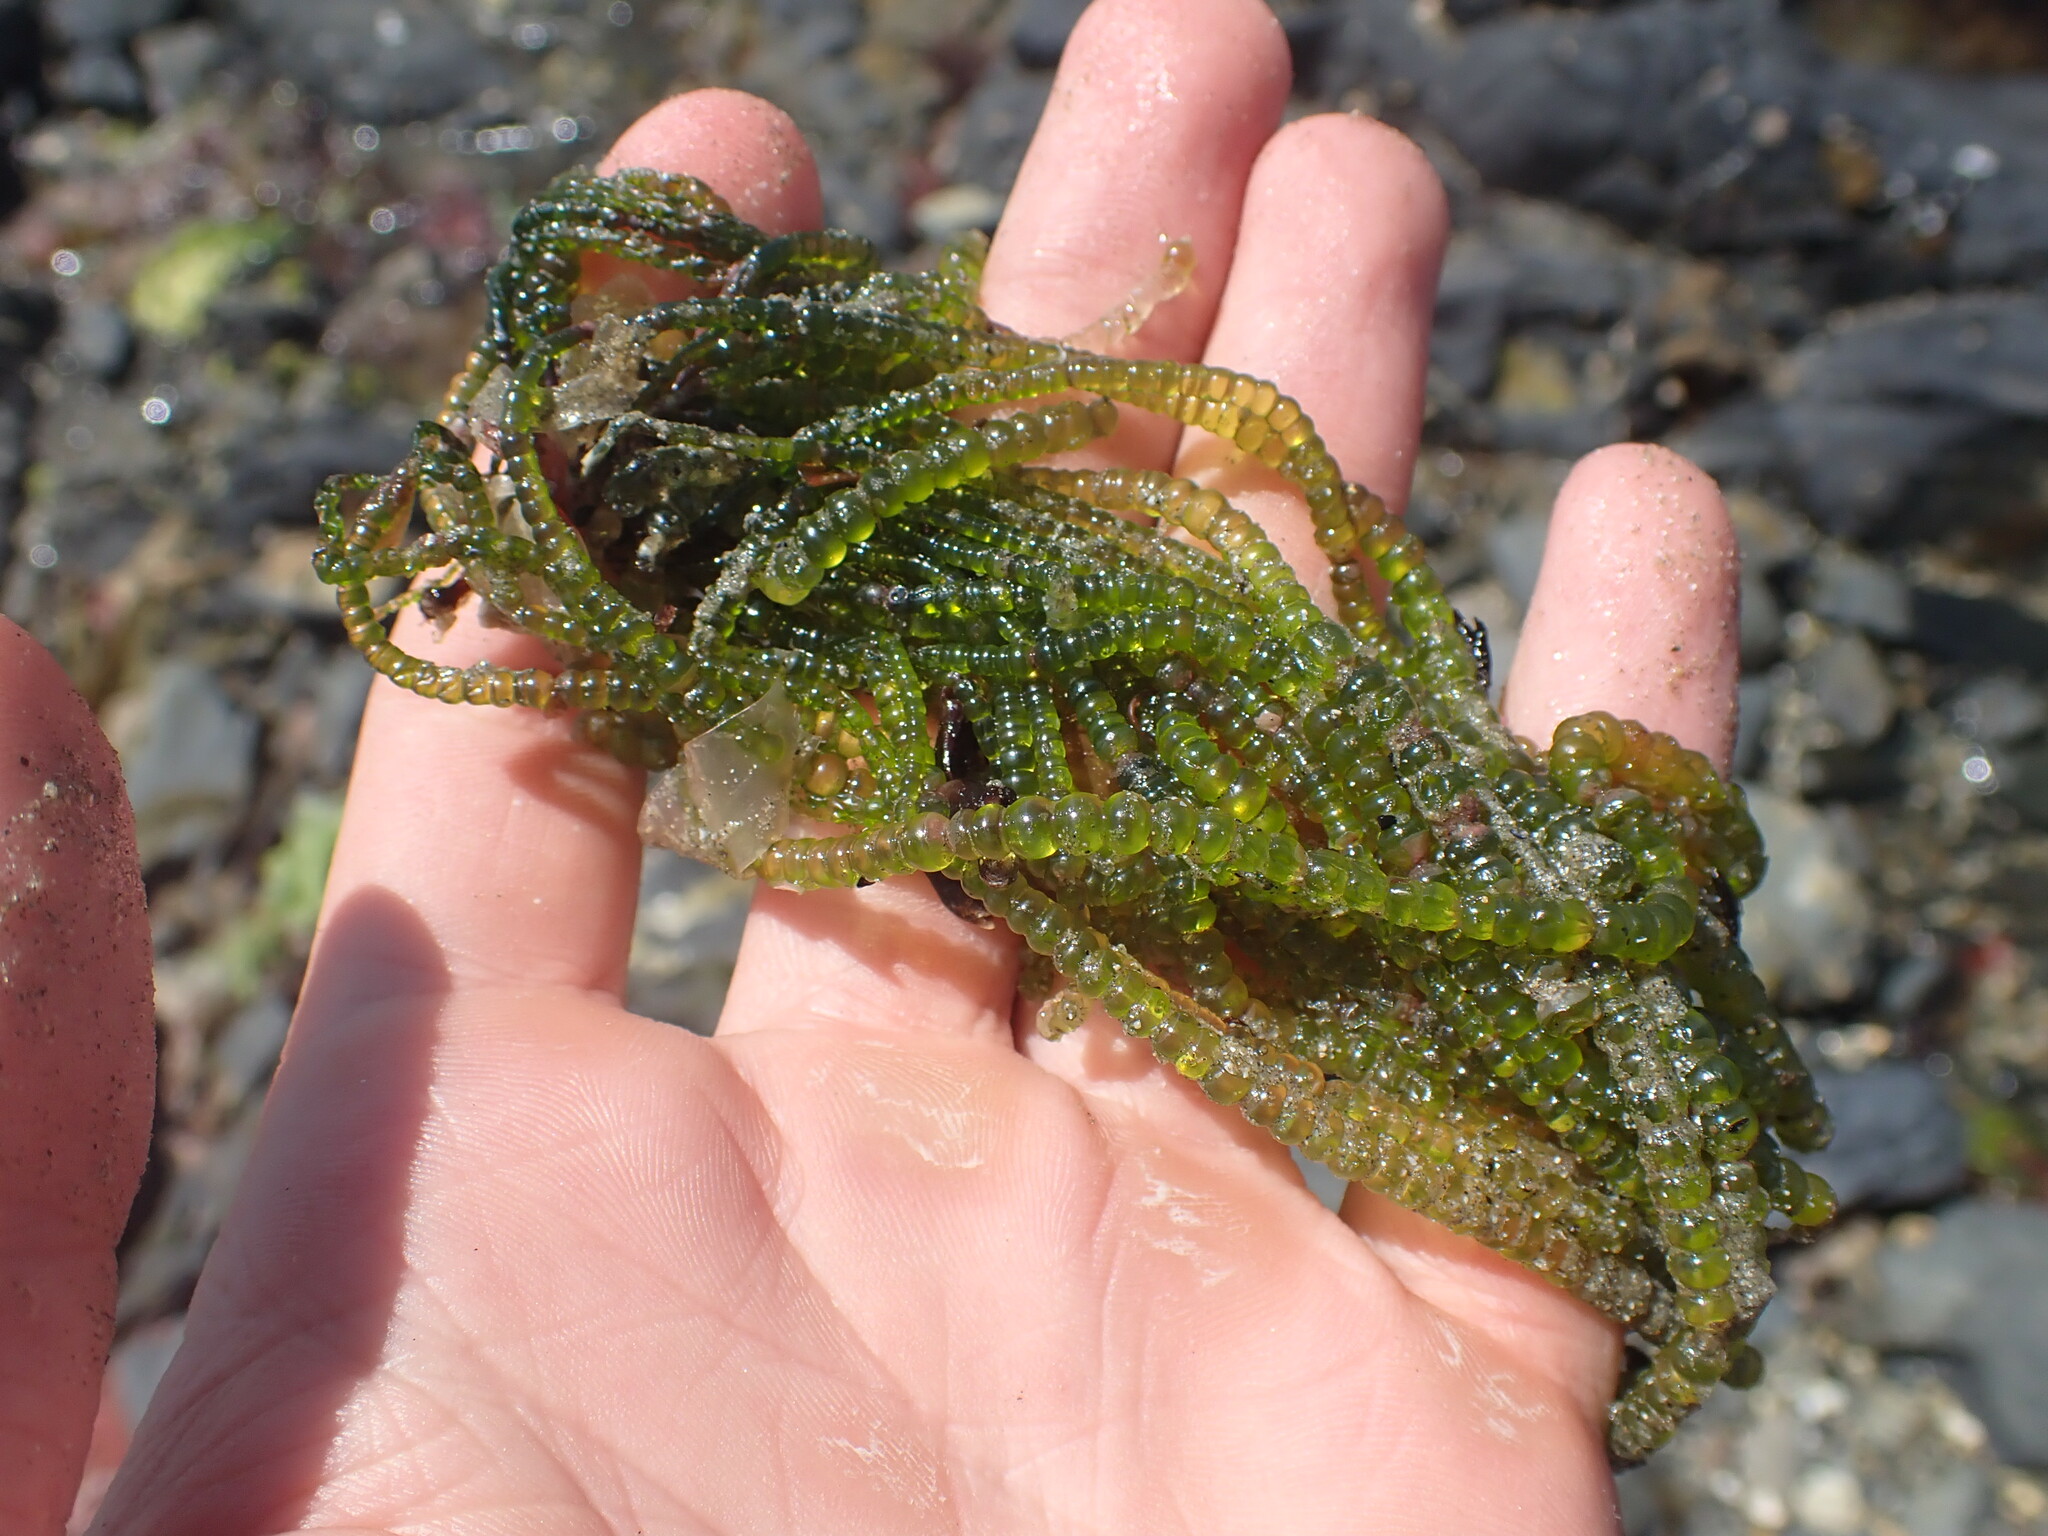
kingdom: Plantae
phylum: Chlorophyta
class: Ulvophyceae
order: Cladophorales
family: Cladophoraceae
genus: Chaetomorpha
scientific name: Chaetomorpha coliformis
